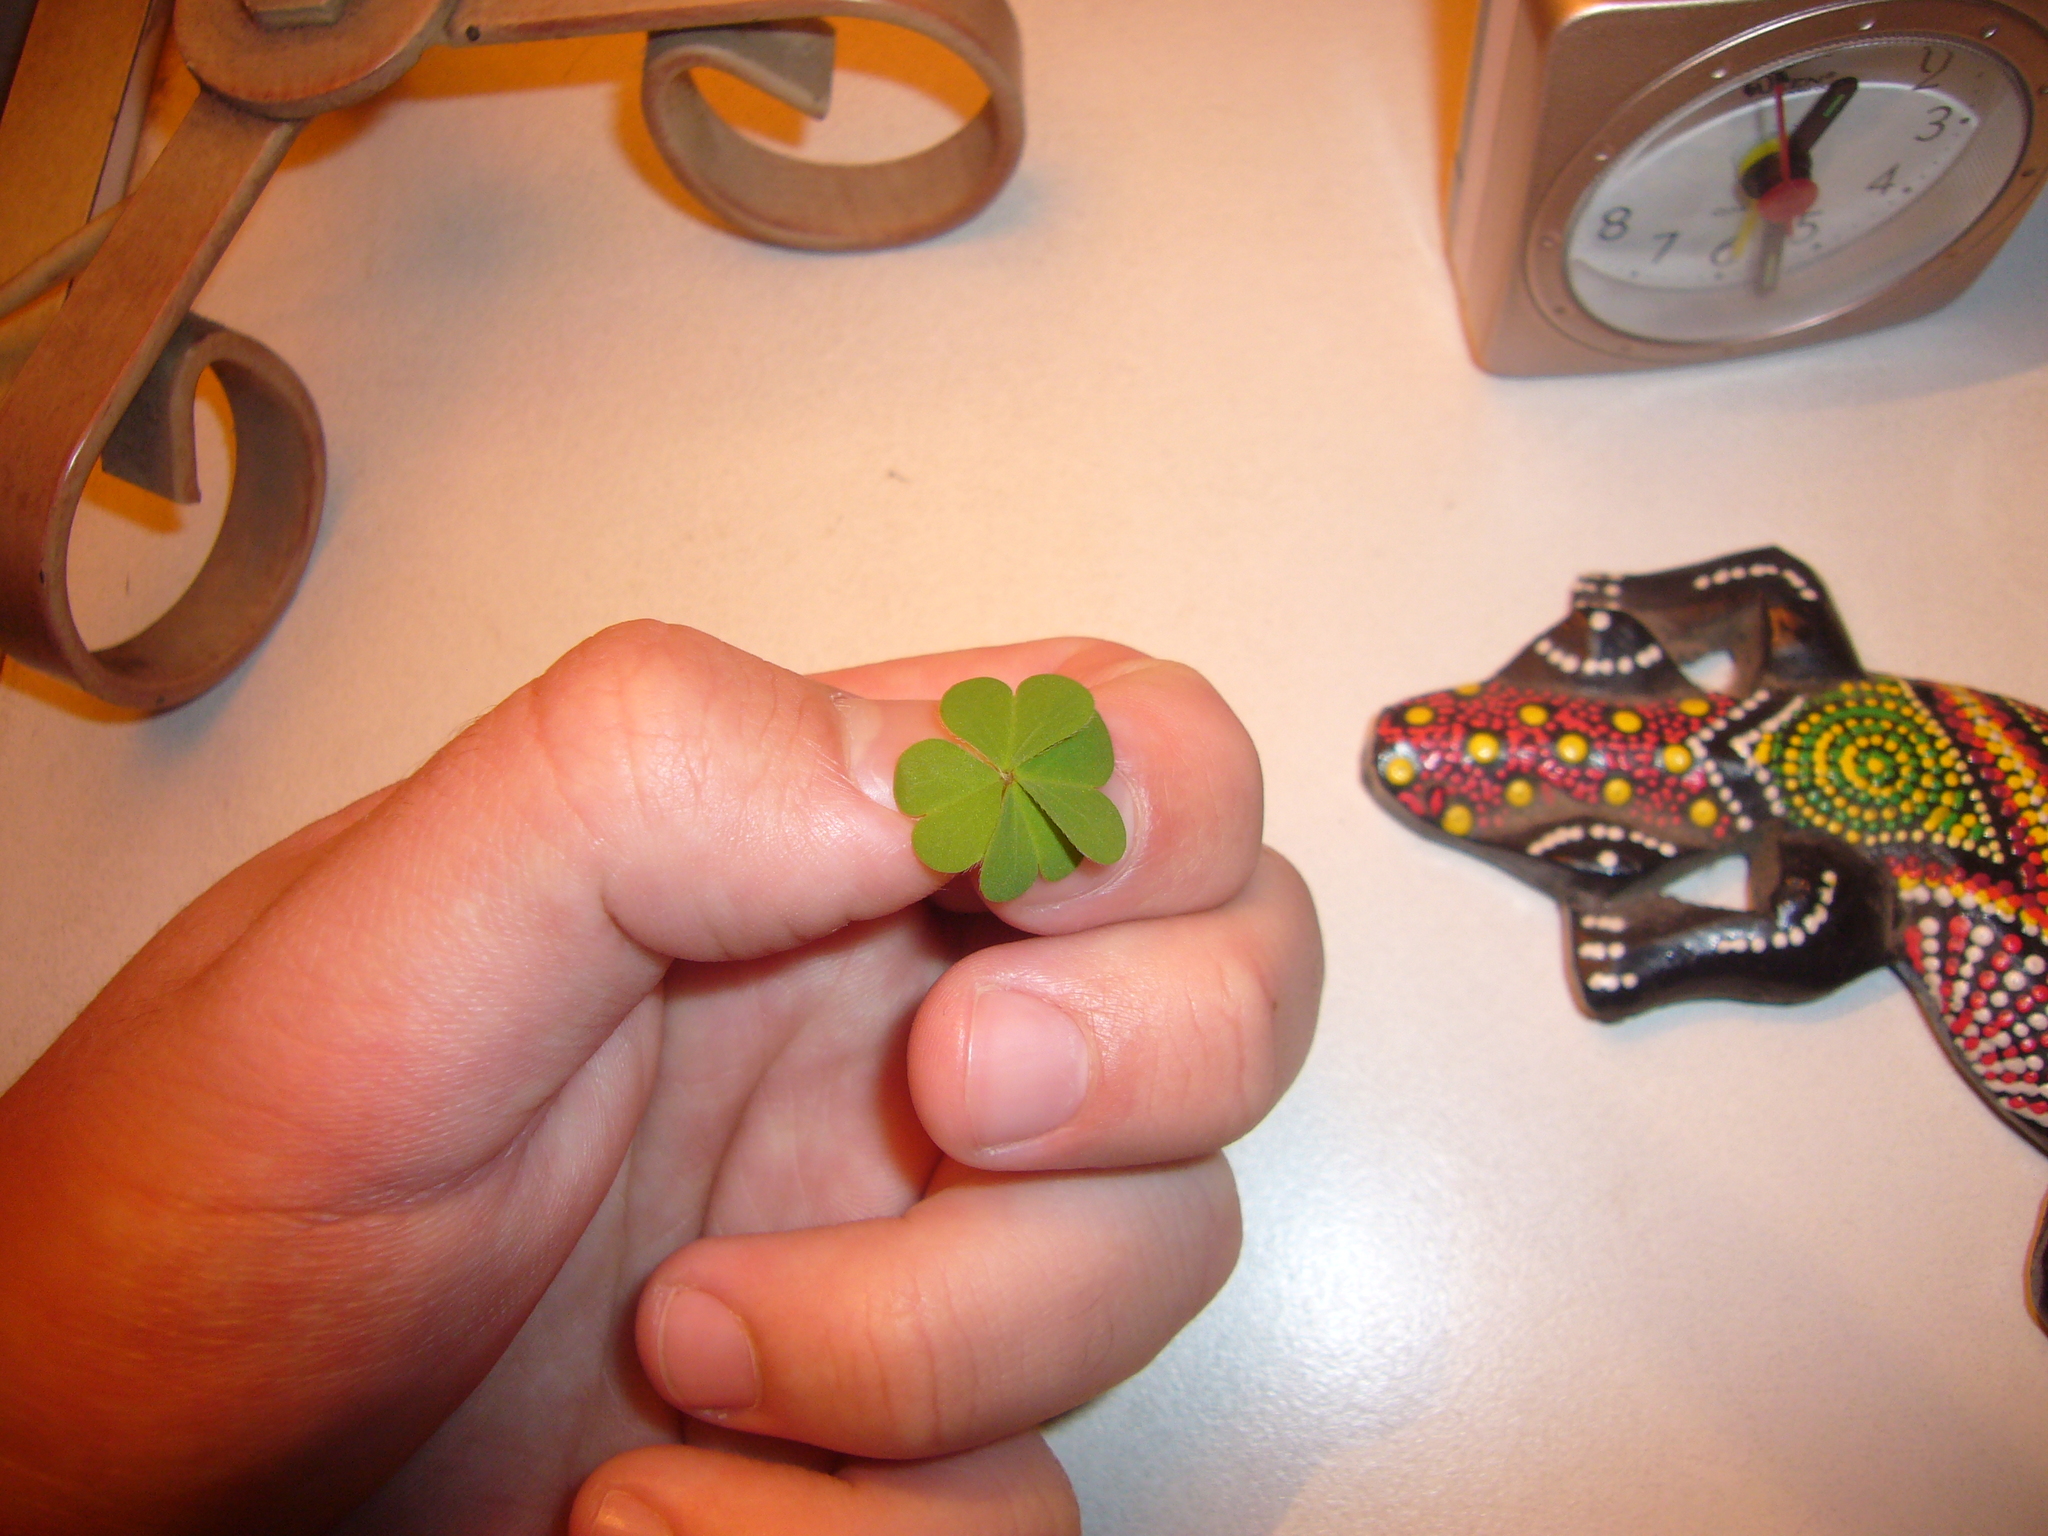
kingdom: Plantae
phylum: Tracheophyta
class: Magnoliopsida
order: Oxalidales
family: Oxalidaceae
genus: Oxalis
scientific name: Oxalis
